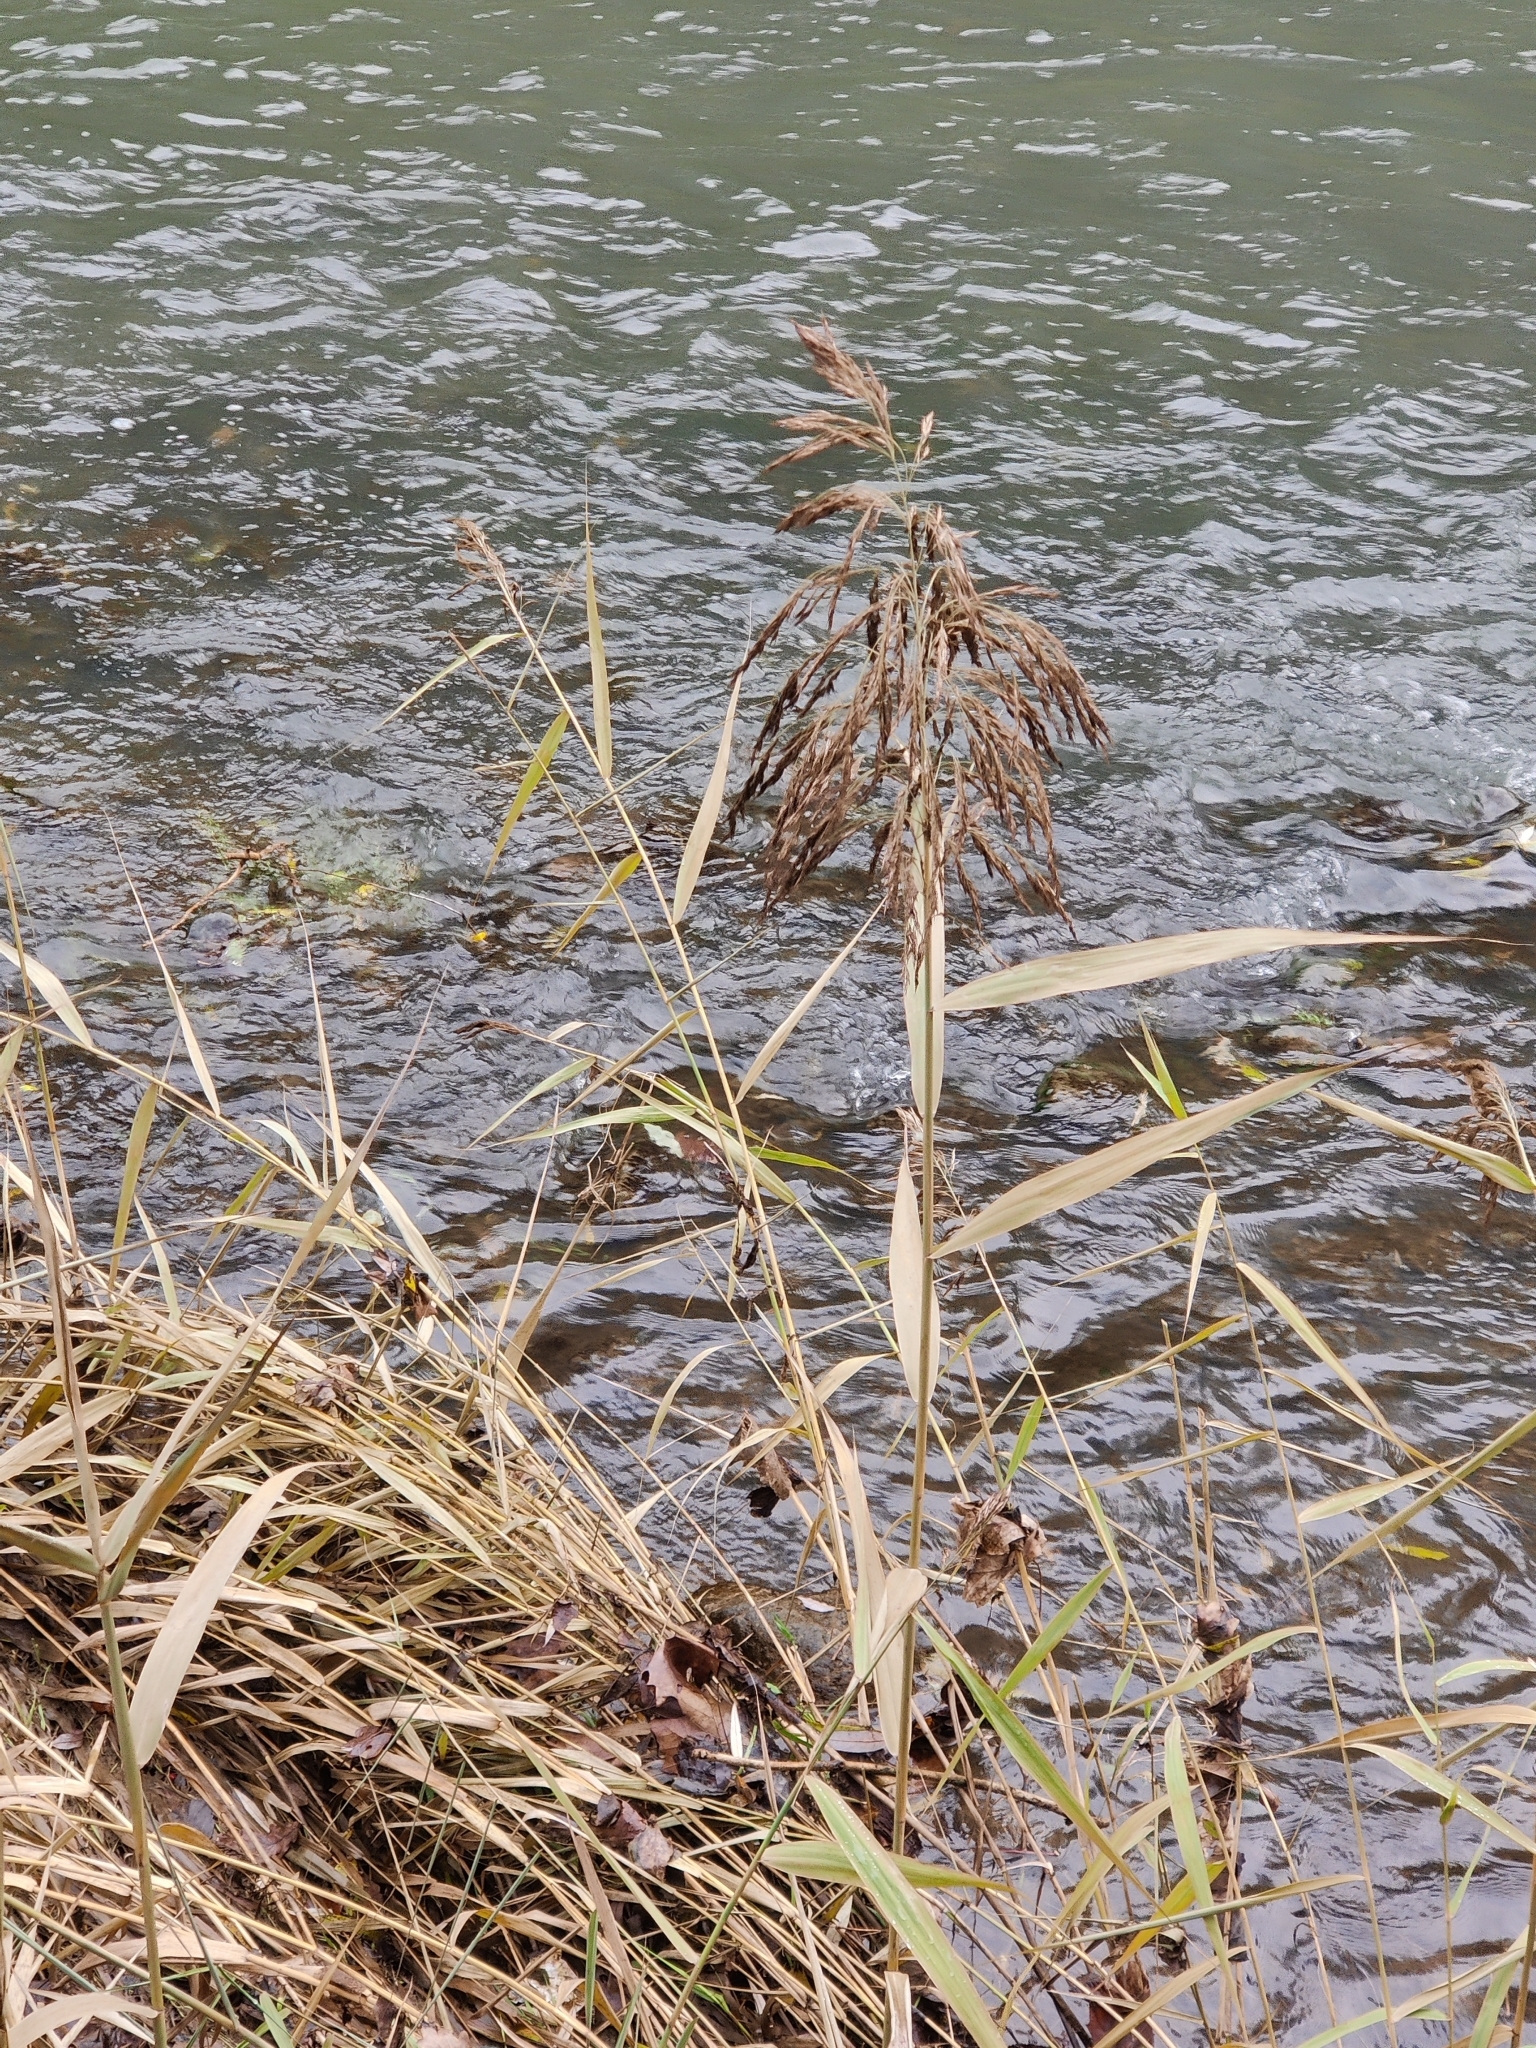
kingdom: Plantae
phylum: Tracheophyta
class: Liliopsida
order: Poales
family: Poaceae
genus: Phragmites
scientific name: Phragmites australis
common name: Common reed
